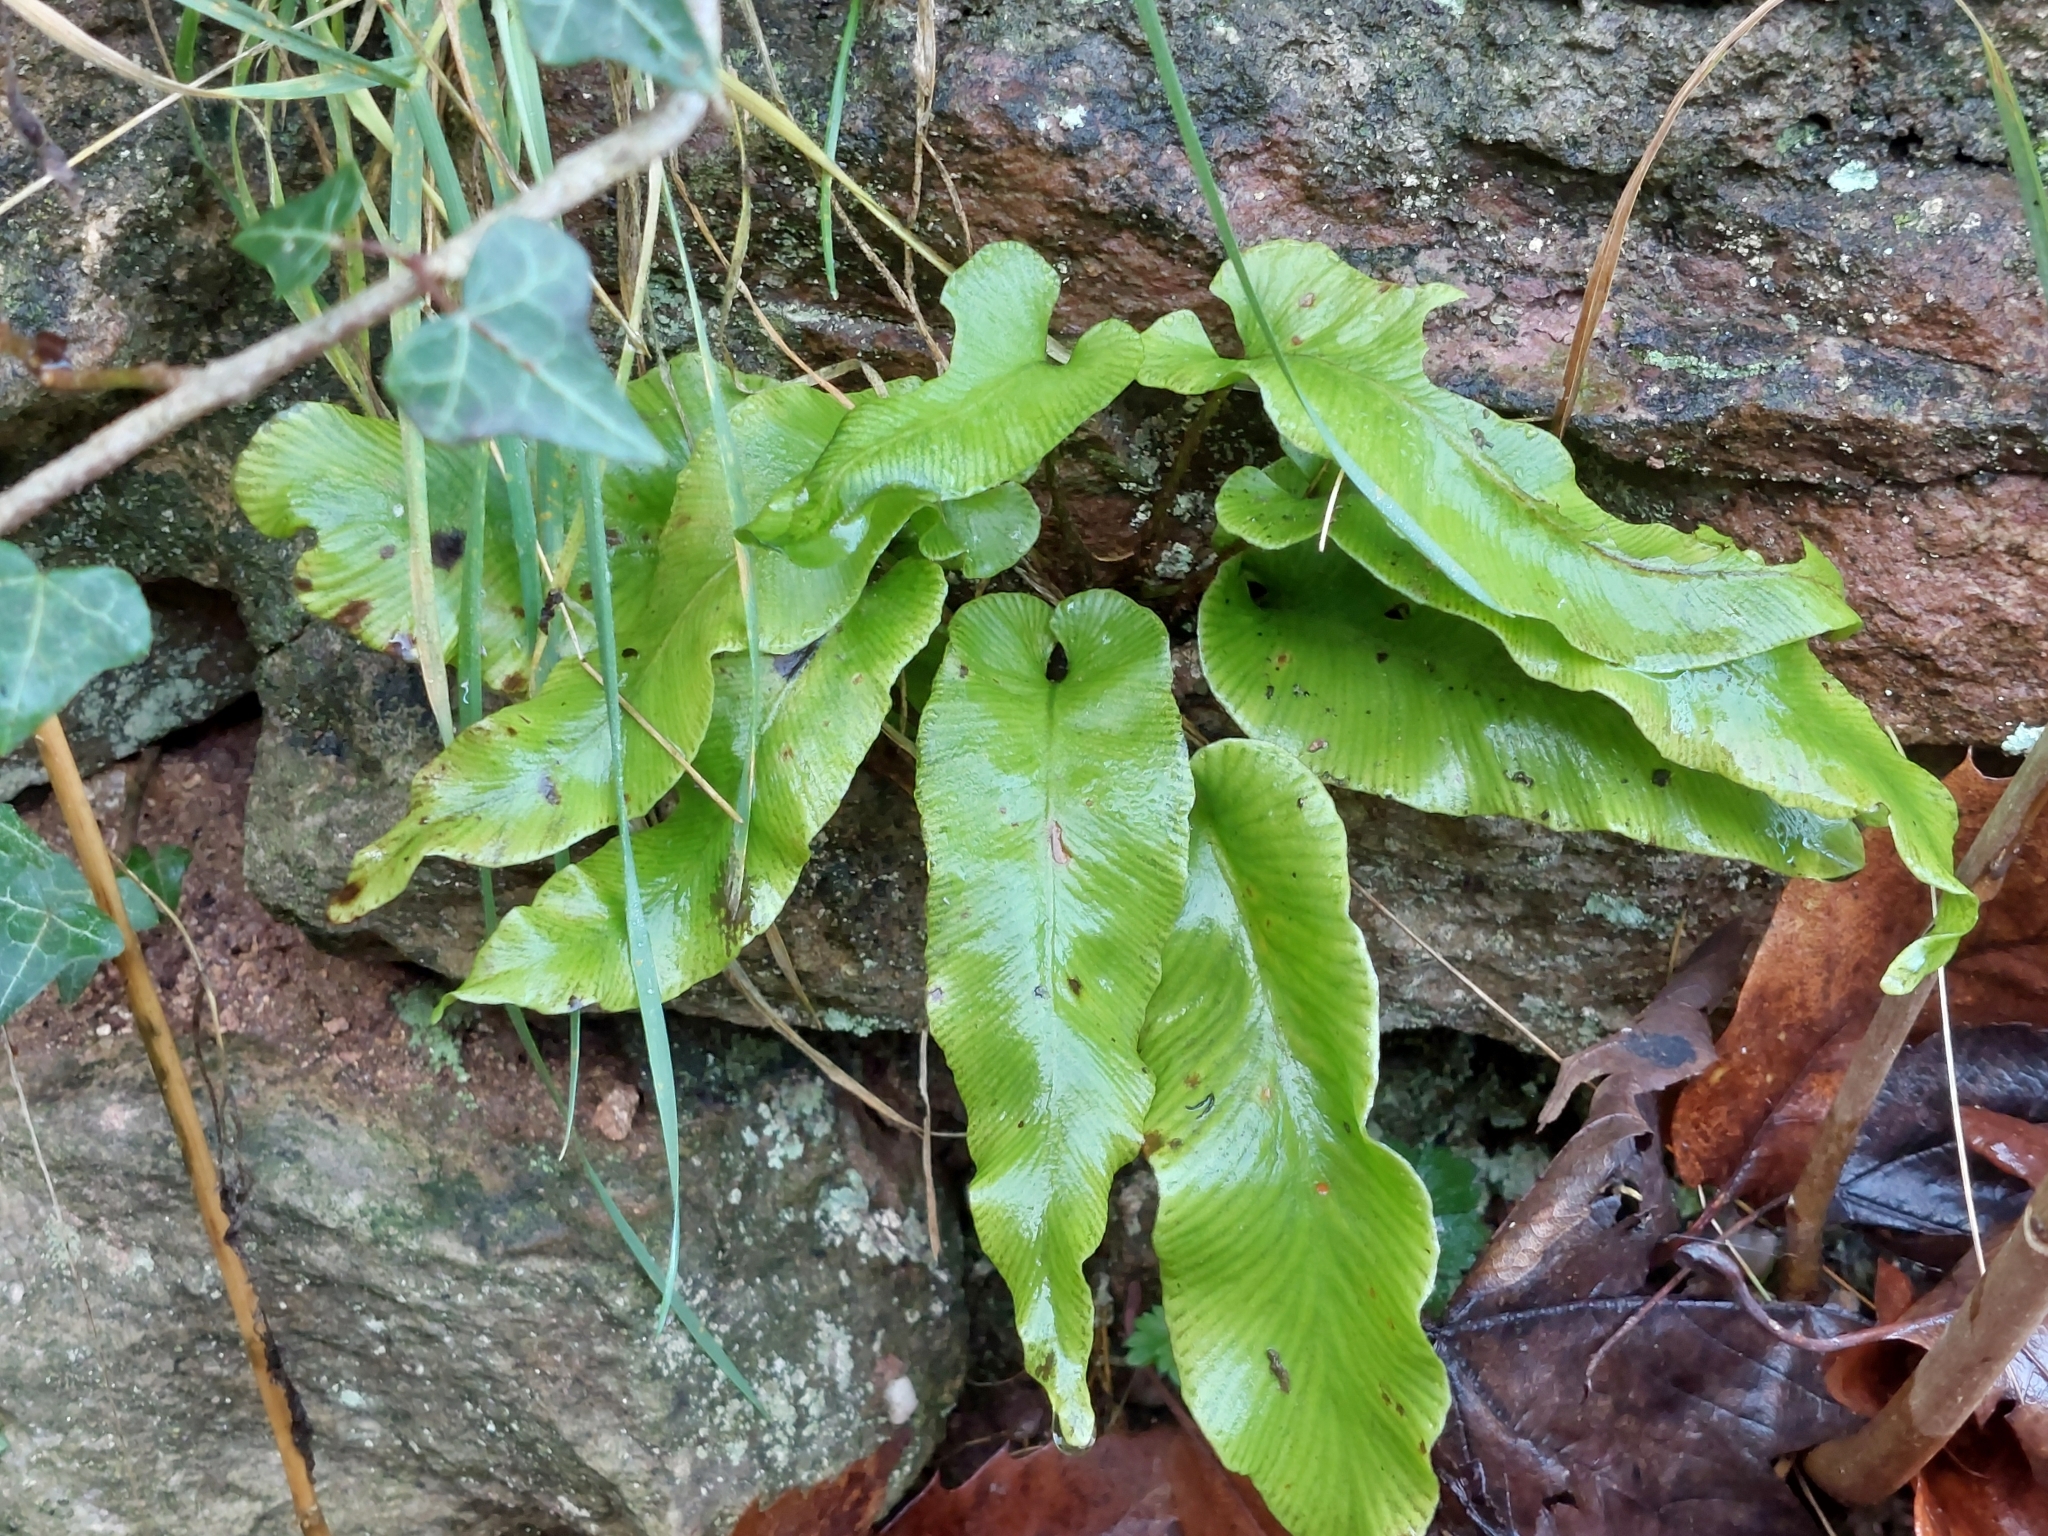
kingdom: Plantae
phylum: Tracheophyta
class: Polypodiopsida
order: Polypodiales
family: Aspleniaceae
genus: Asplenium
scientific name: Asplenium scolopendrium
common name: Hart's-tongue fern
